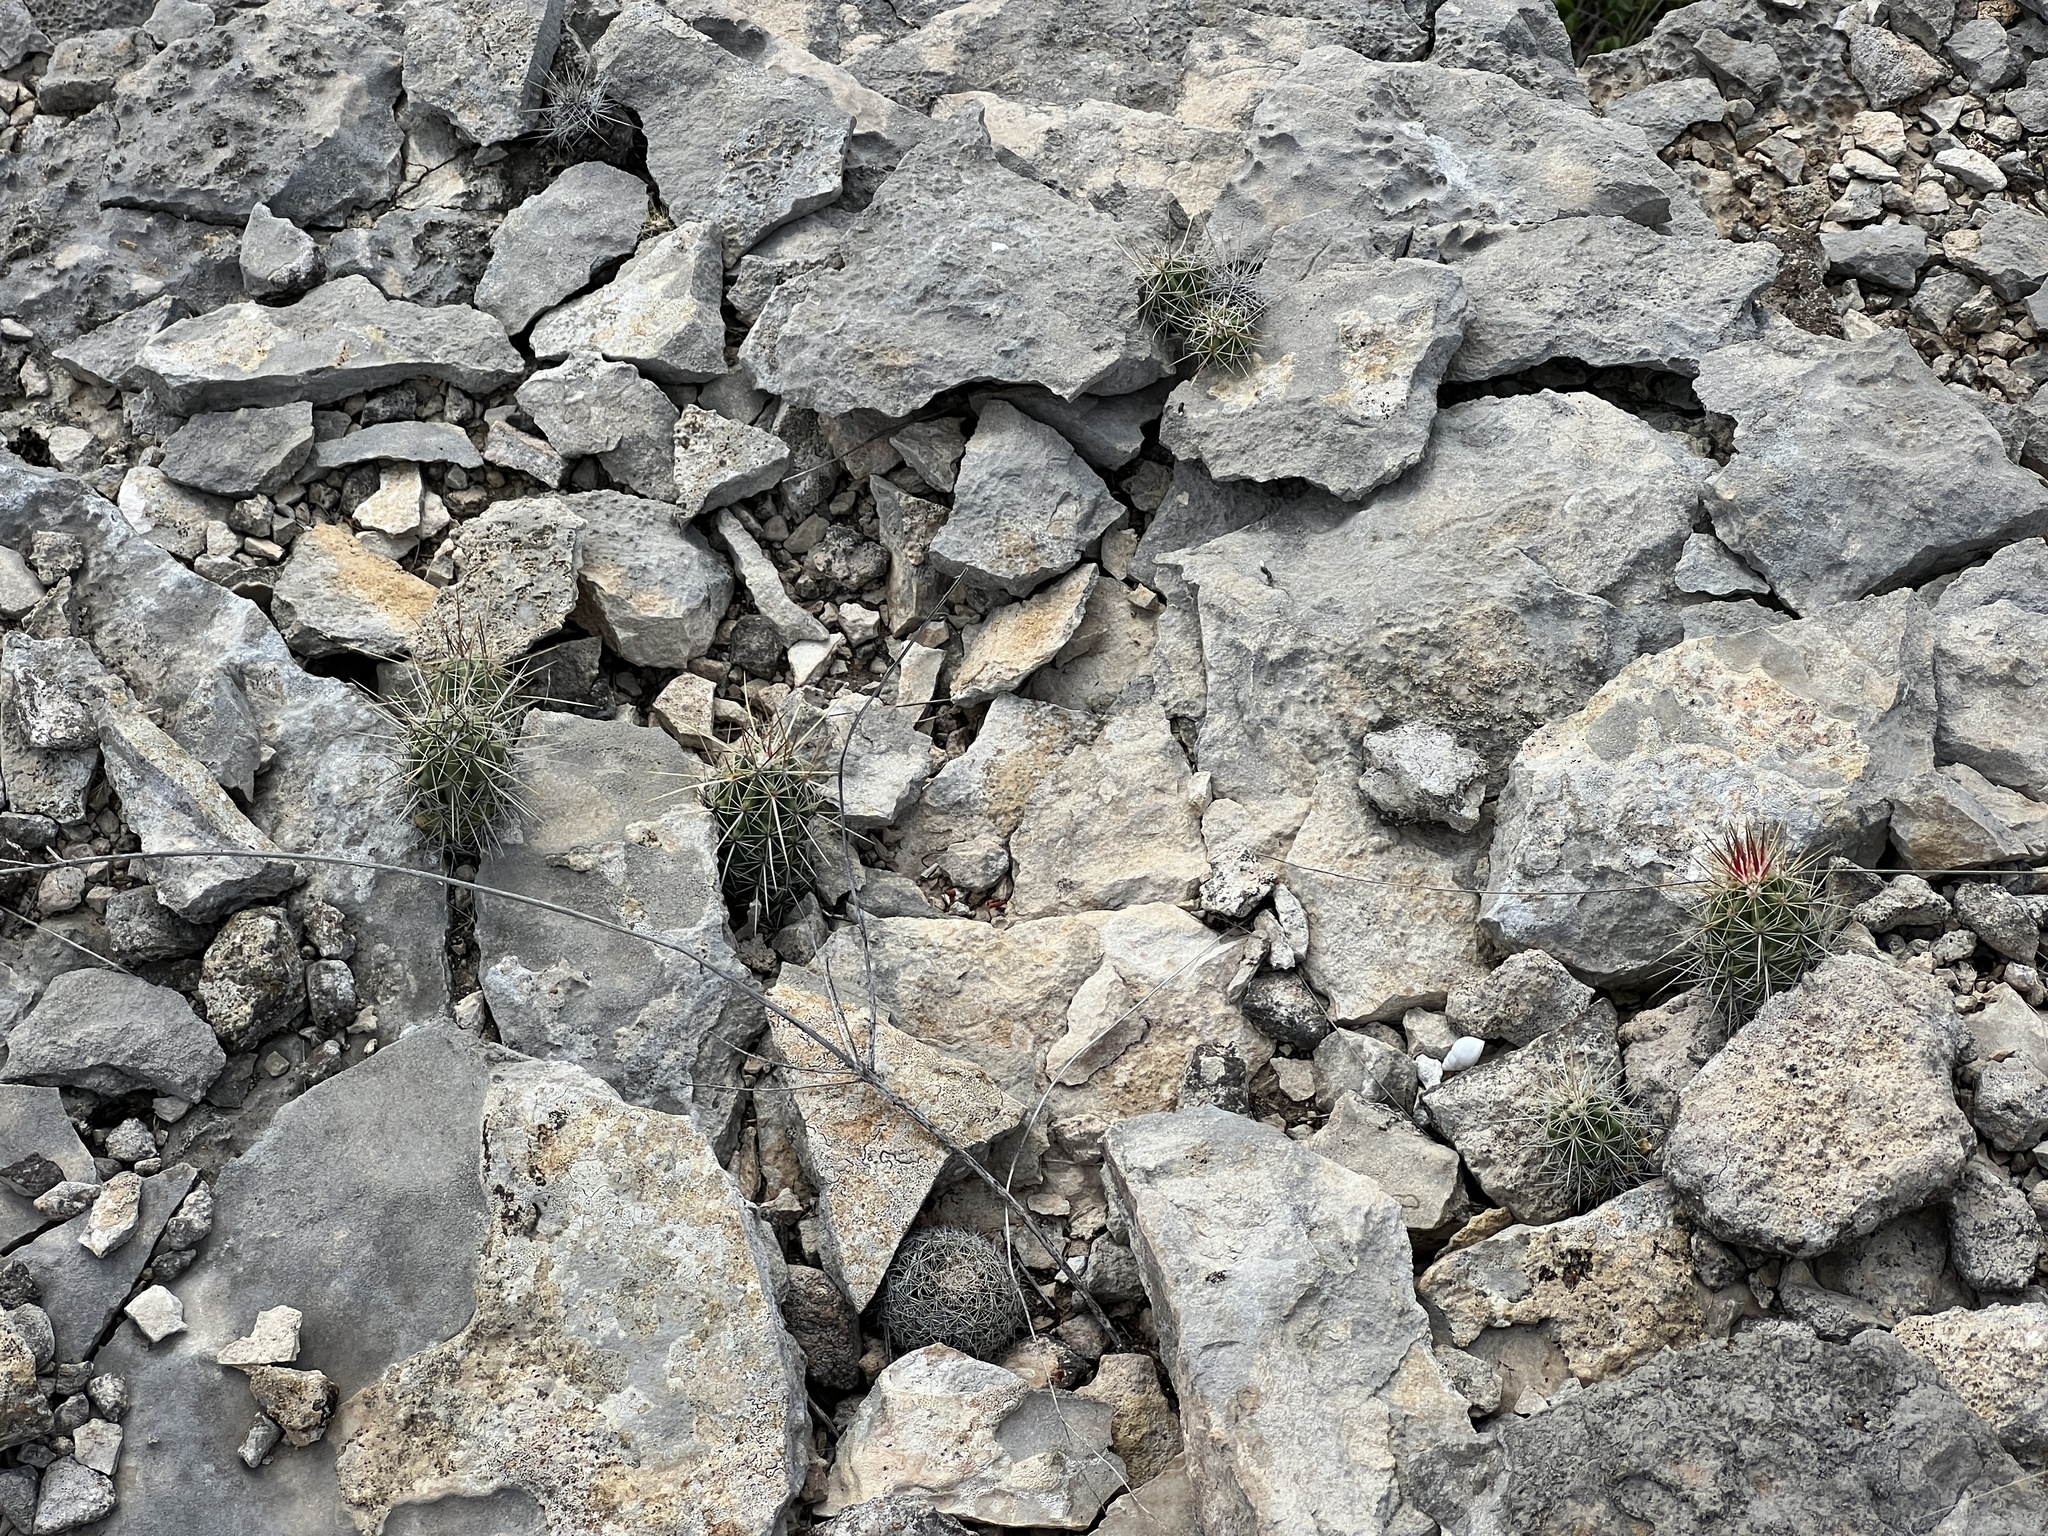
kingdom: Plantae
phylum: Tracheophyta
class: Magnoliopsida
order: Caryophyllales
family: Cactaceae
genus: Echinocereus
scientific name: Echinocereus enneacanthus
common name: Pitaya
